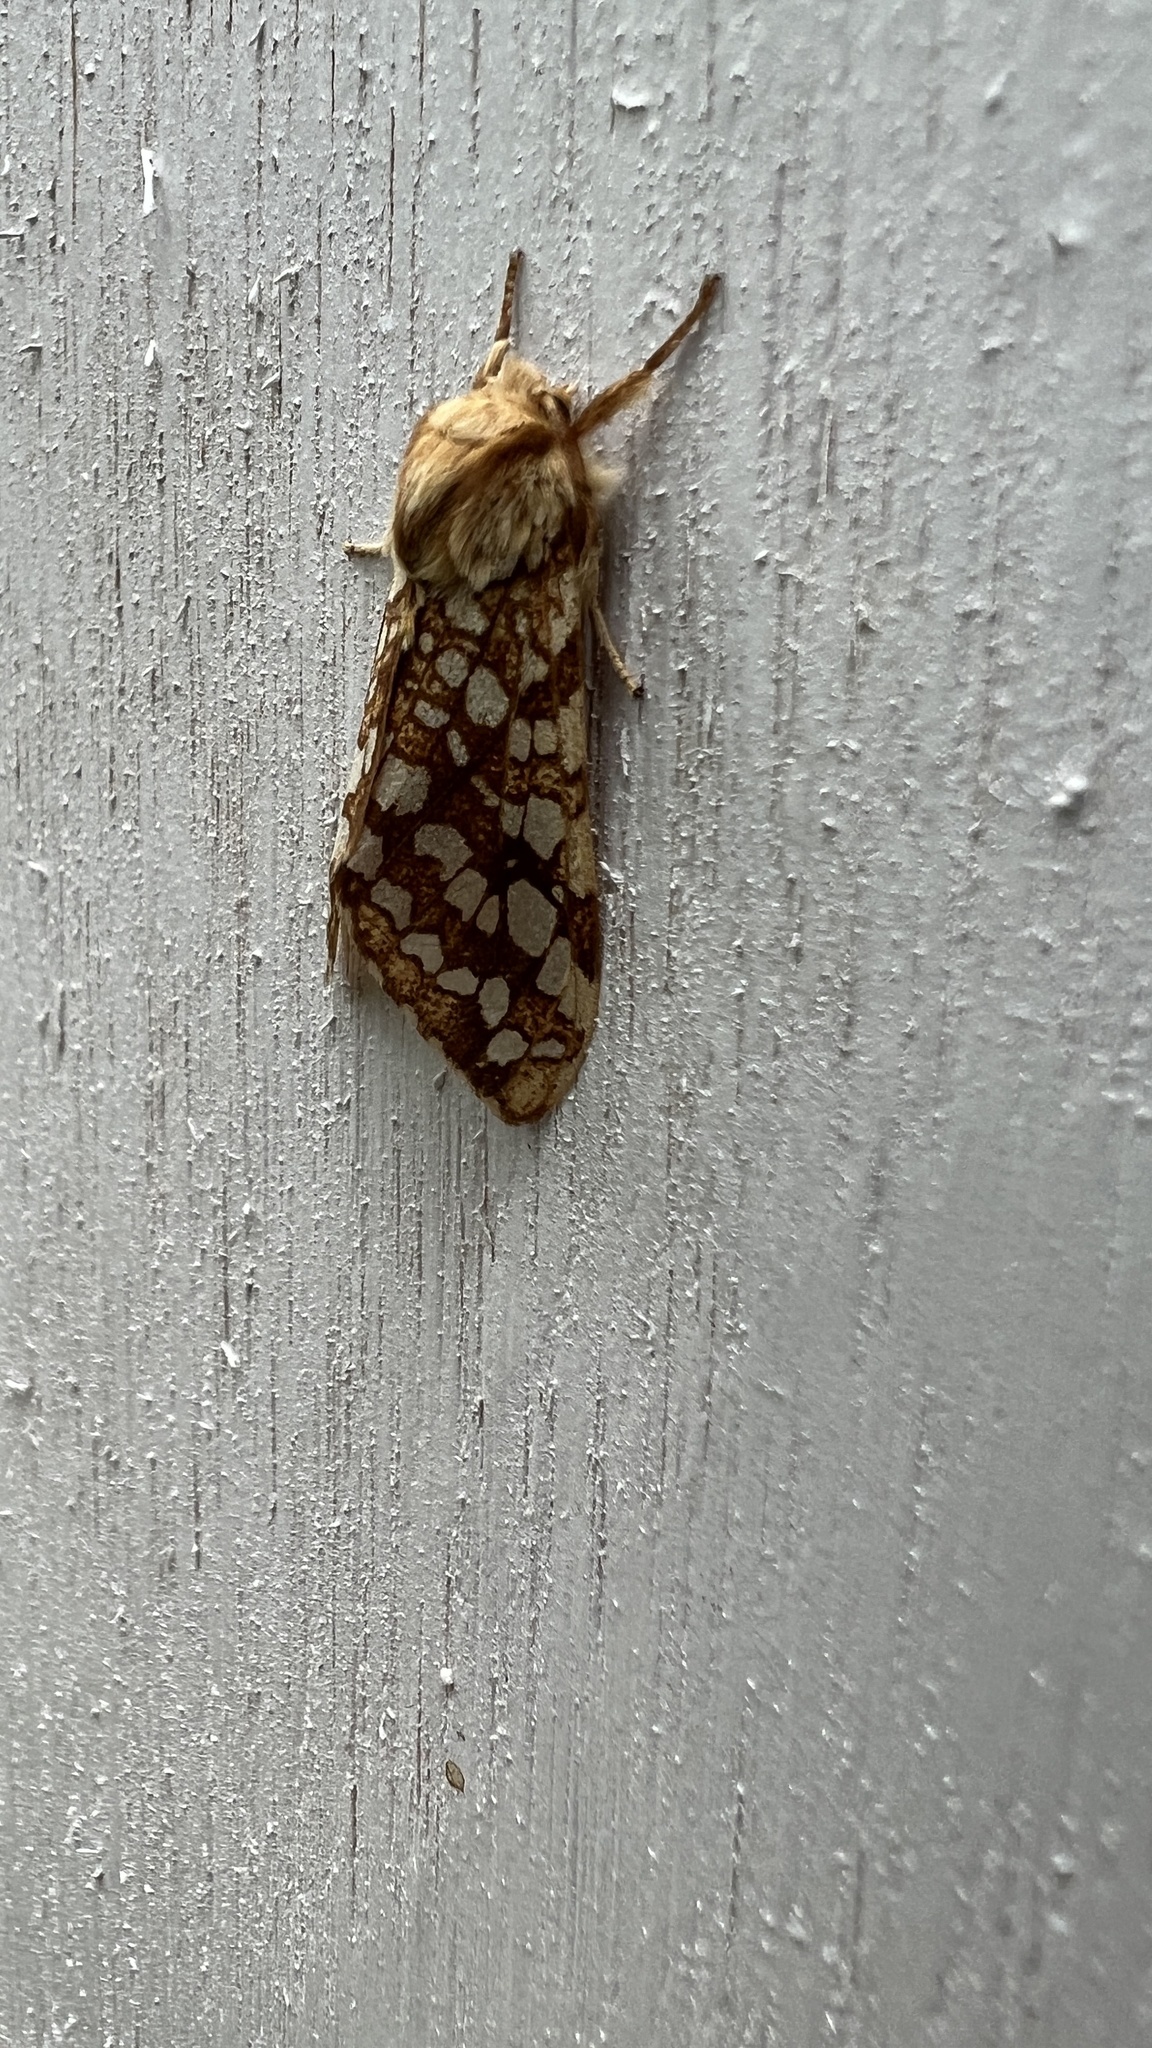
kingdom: Animalia
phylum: Arthropoda
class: Insecta
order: Lepidoptera
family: Erebidae
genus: Lophocampa
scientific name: Lophocampa caryae
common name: Hickory tussock moth
